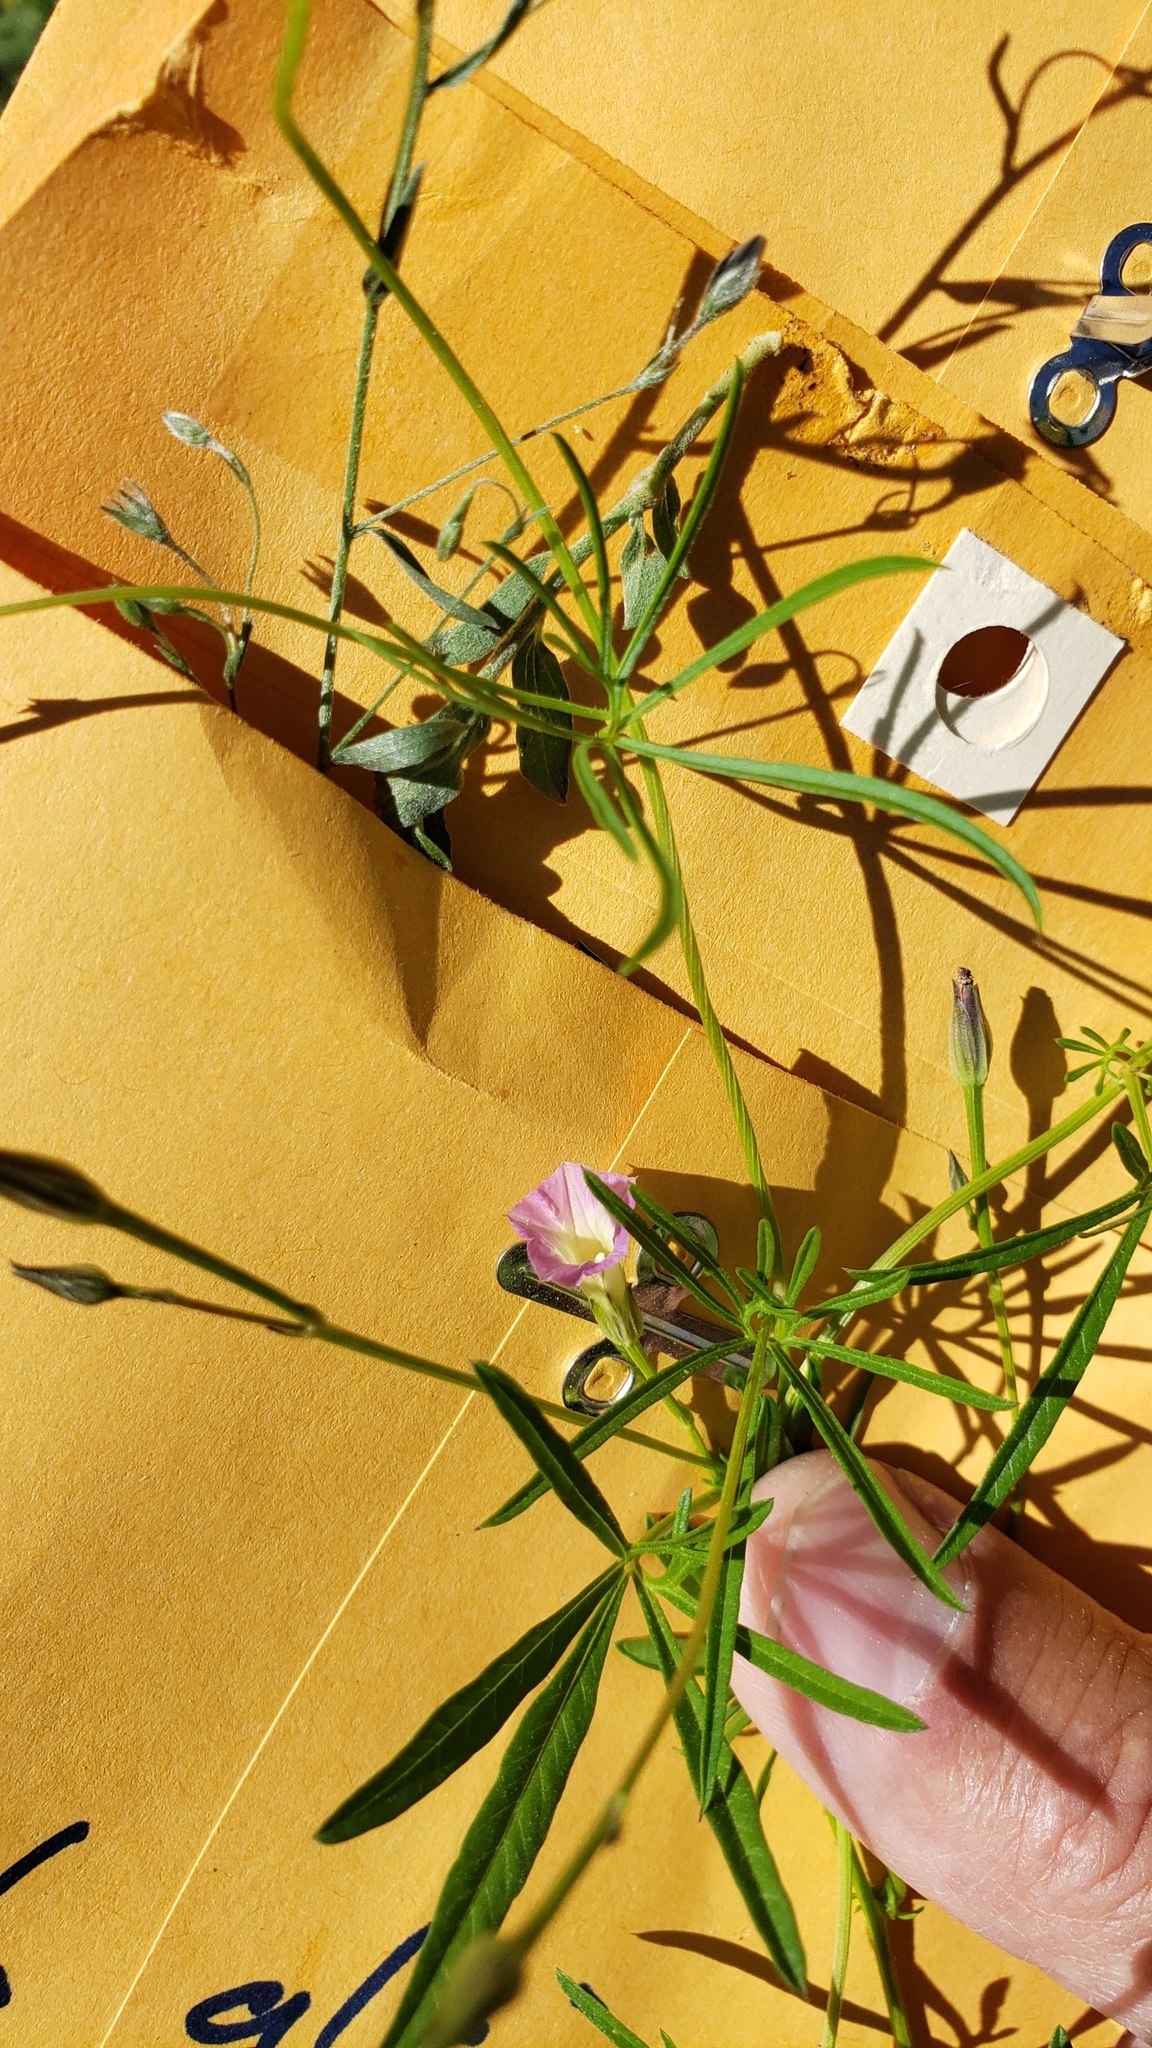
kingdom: Plantae
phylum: Tracheophyta
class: Magnoliopsida
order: Solanales
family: Convolvulaceae
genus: Ipomoea
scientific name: Ipomoea costellata
